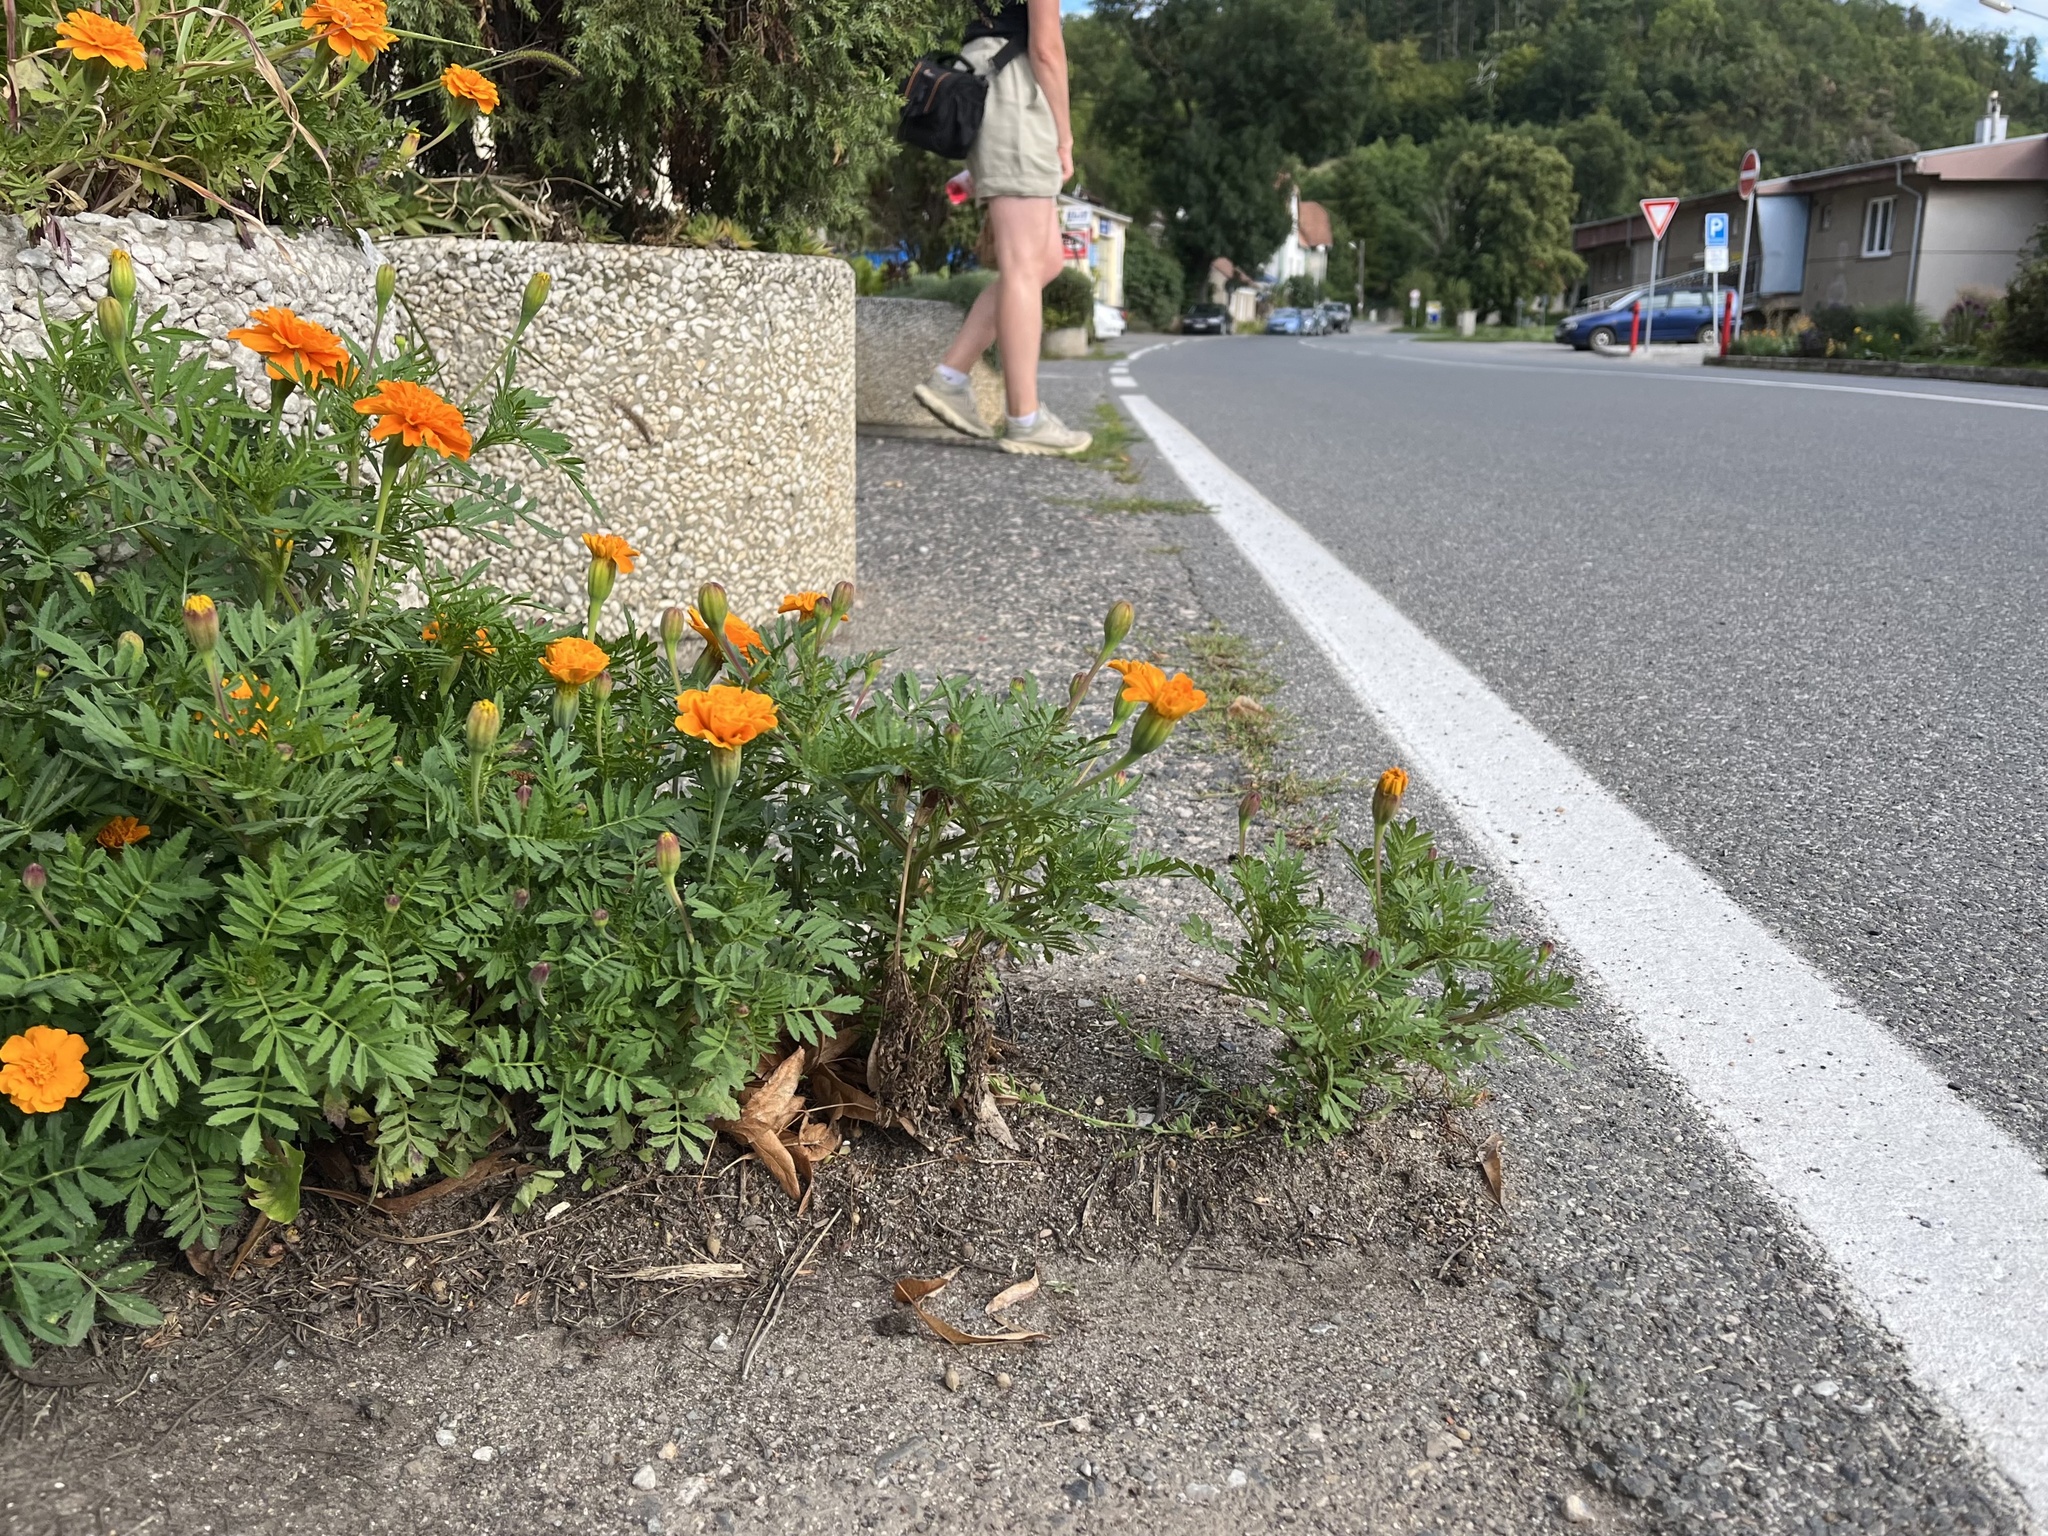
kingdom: Plantae
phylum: Tracheophyta
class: Magnoliopsida
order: Asterales
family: Asteraceae
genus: Tagetes
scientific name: Tagetes erecta
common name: African marigold
